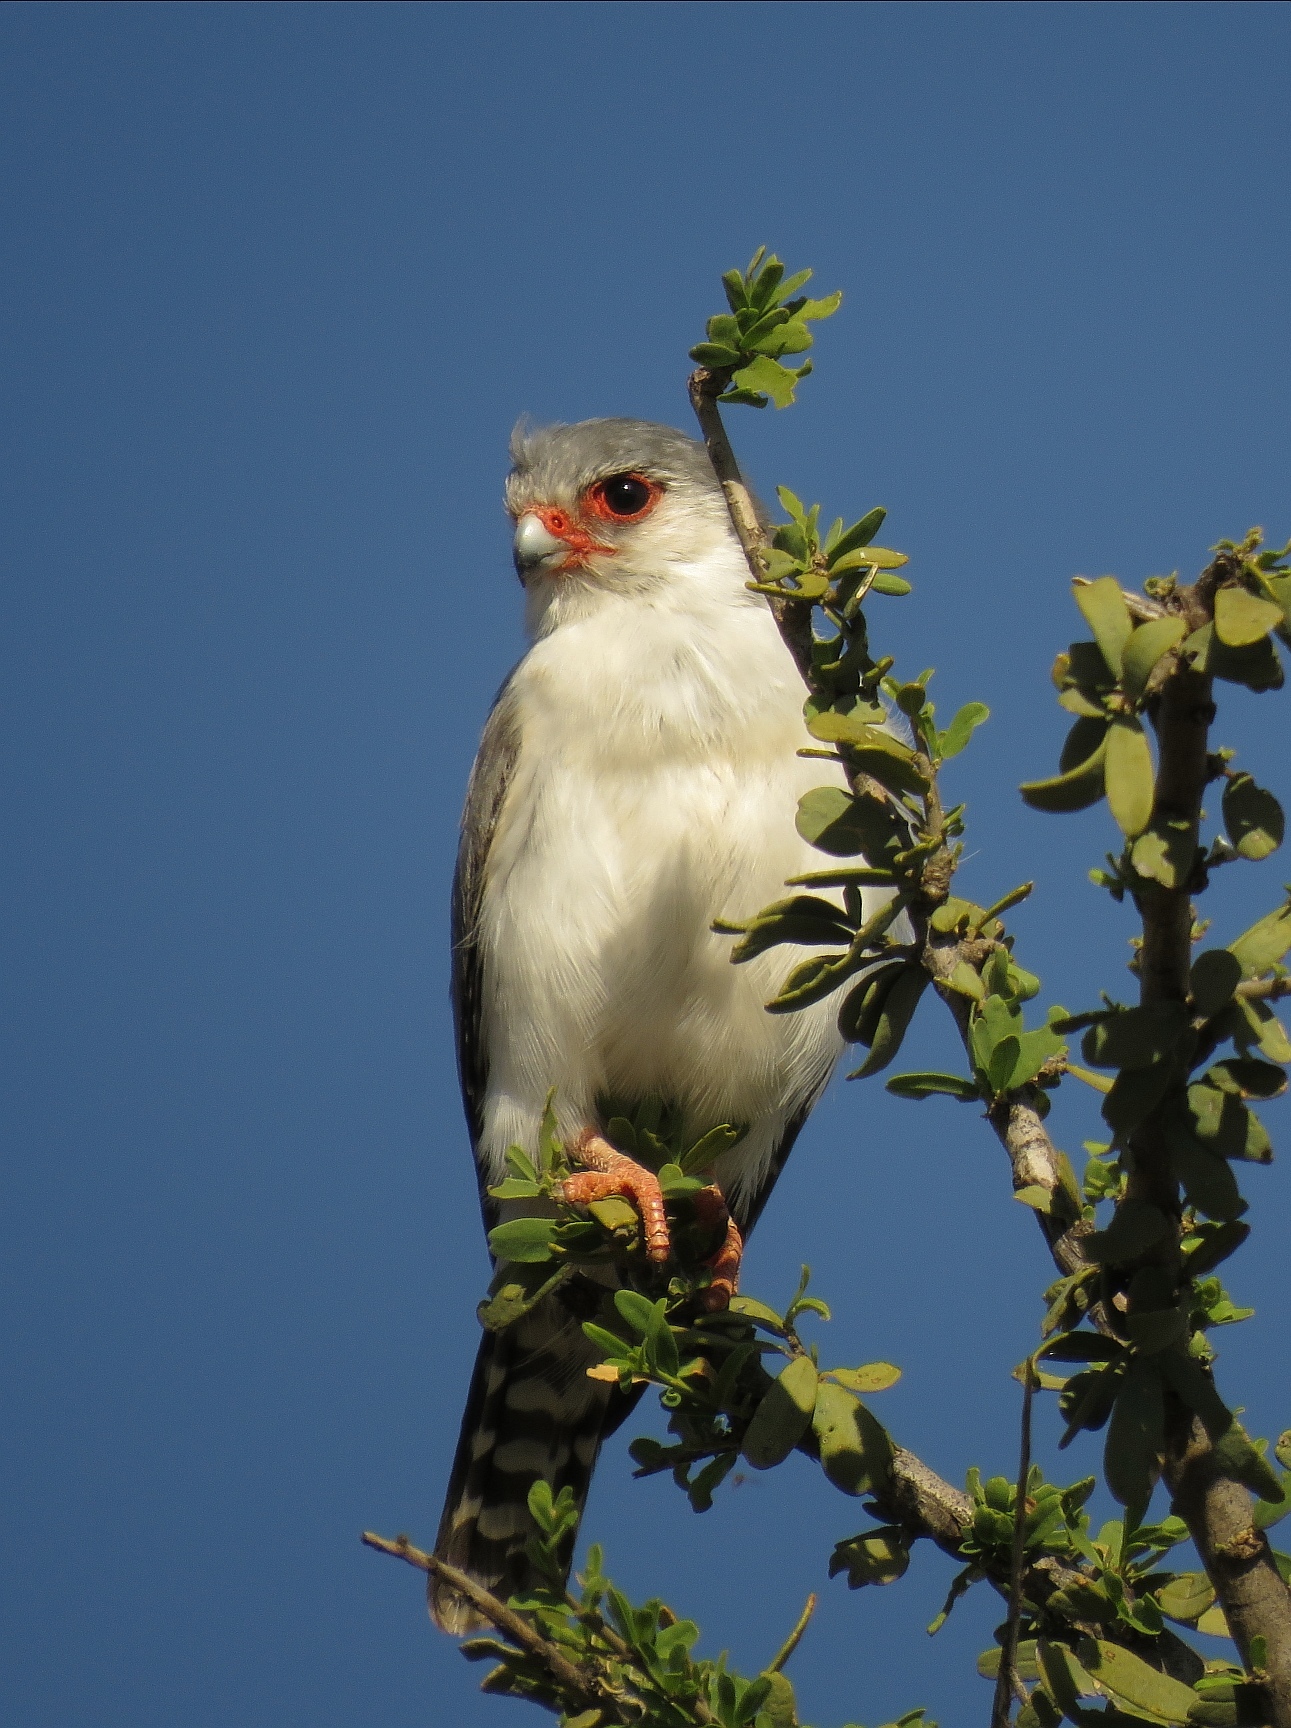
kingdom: Animalia
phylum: Chordata
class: Aves
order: Falconiformes
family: Falconidae
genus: Polihierax
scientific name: Polihierax semitorquatus
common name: Pygmy falcon
